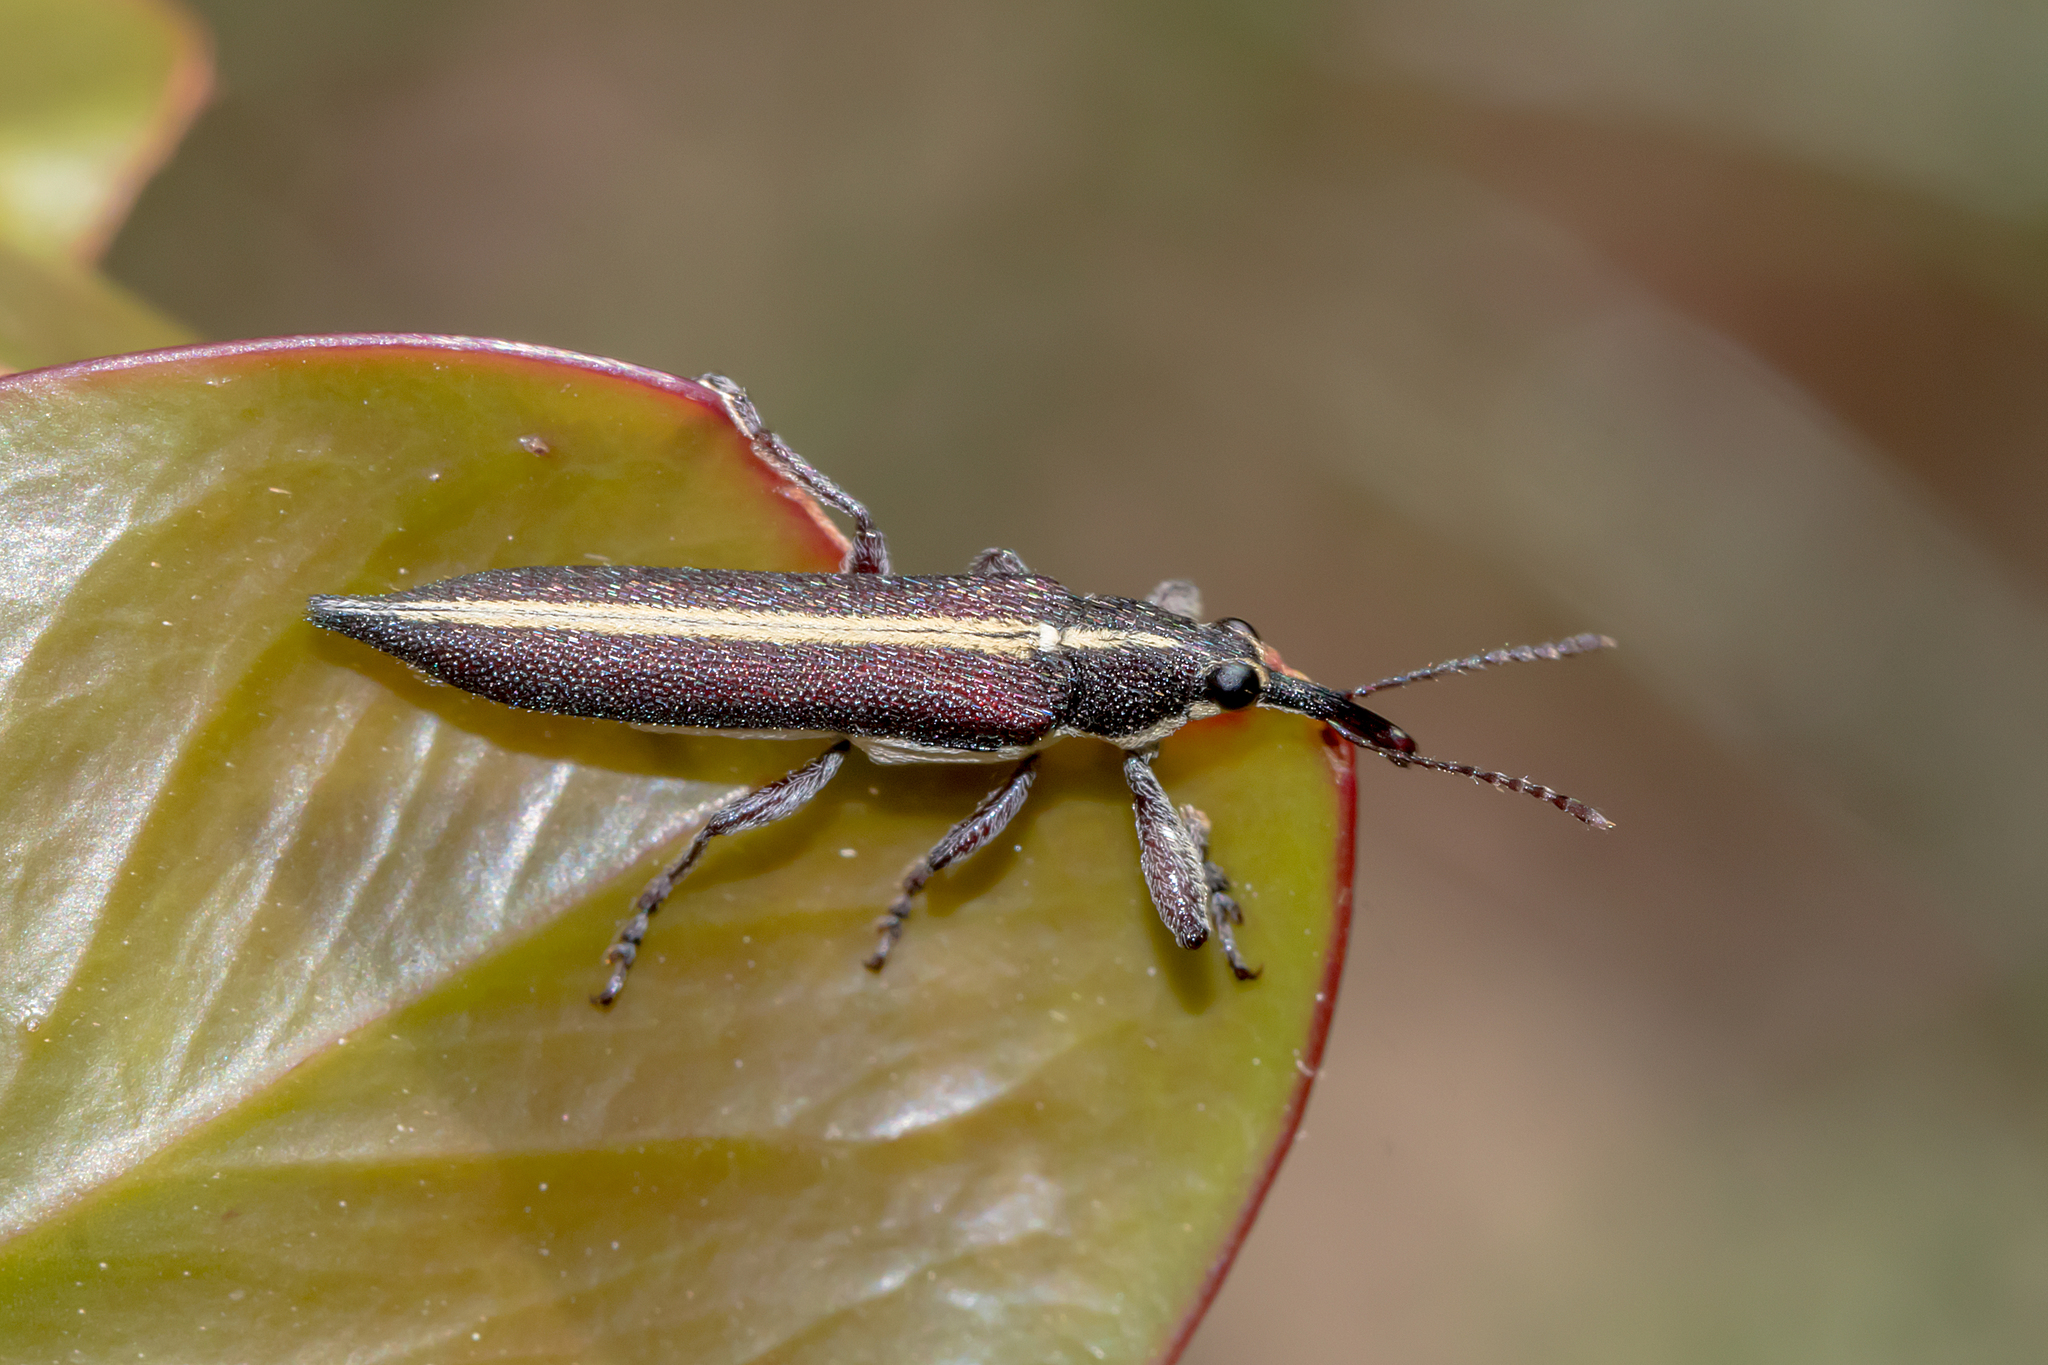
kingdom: Animalia
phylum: Arthropoda
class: Insecta
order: Coleoptera
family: Belidae
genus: Rhinotia
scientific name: Rhinotia suturalis
